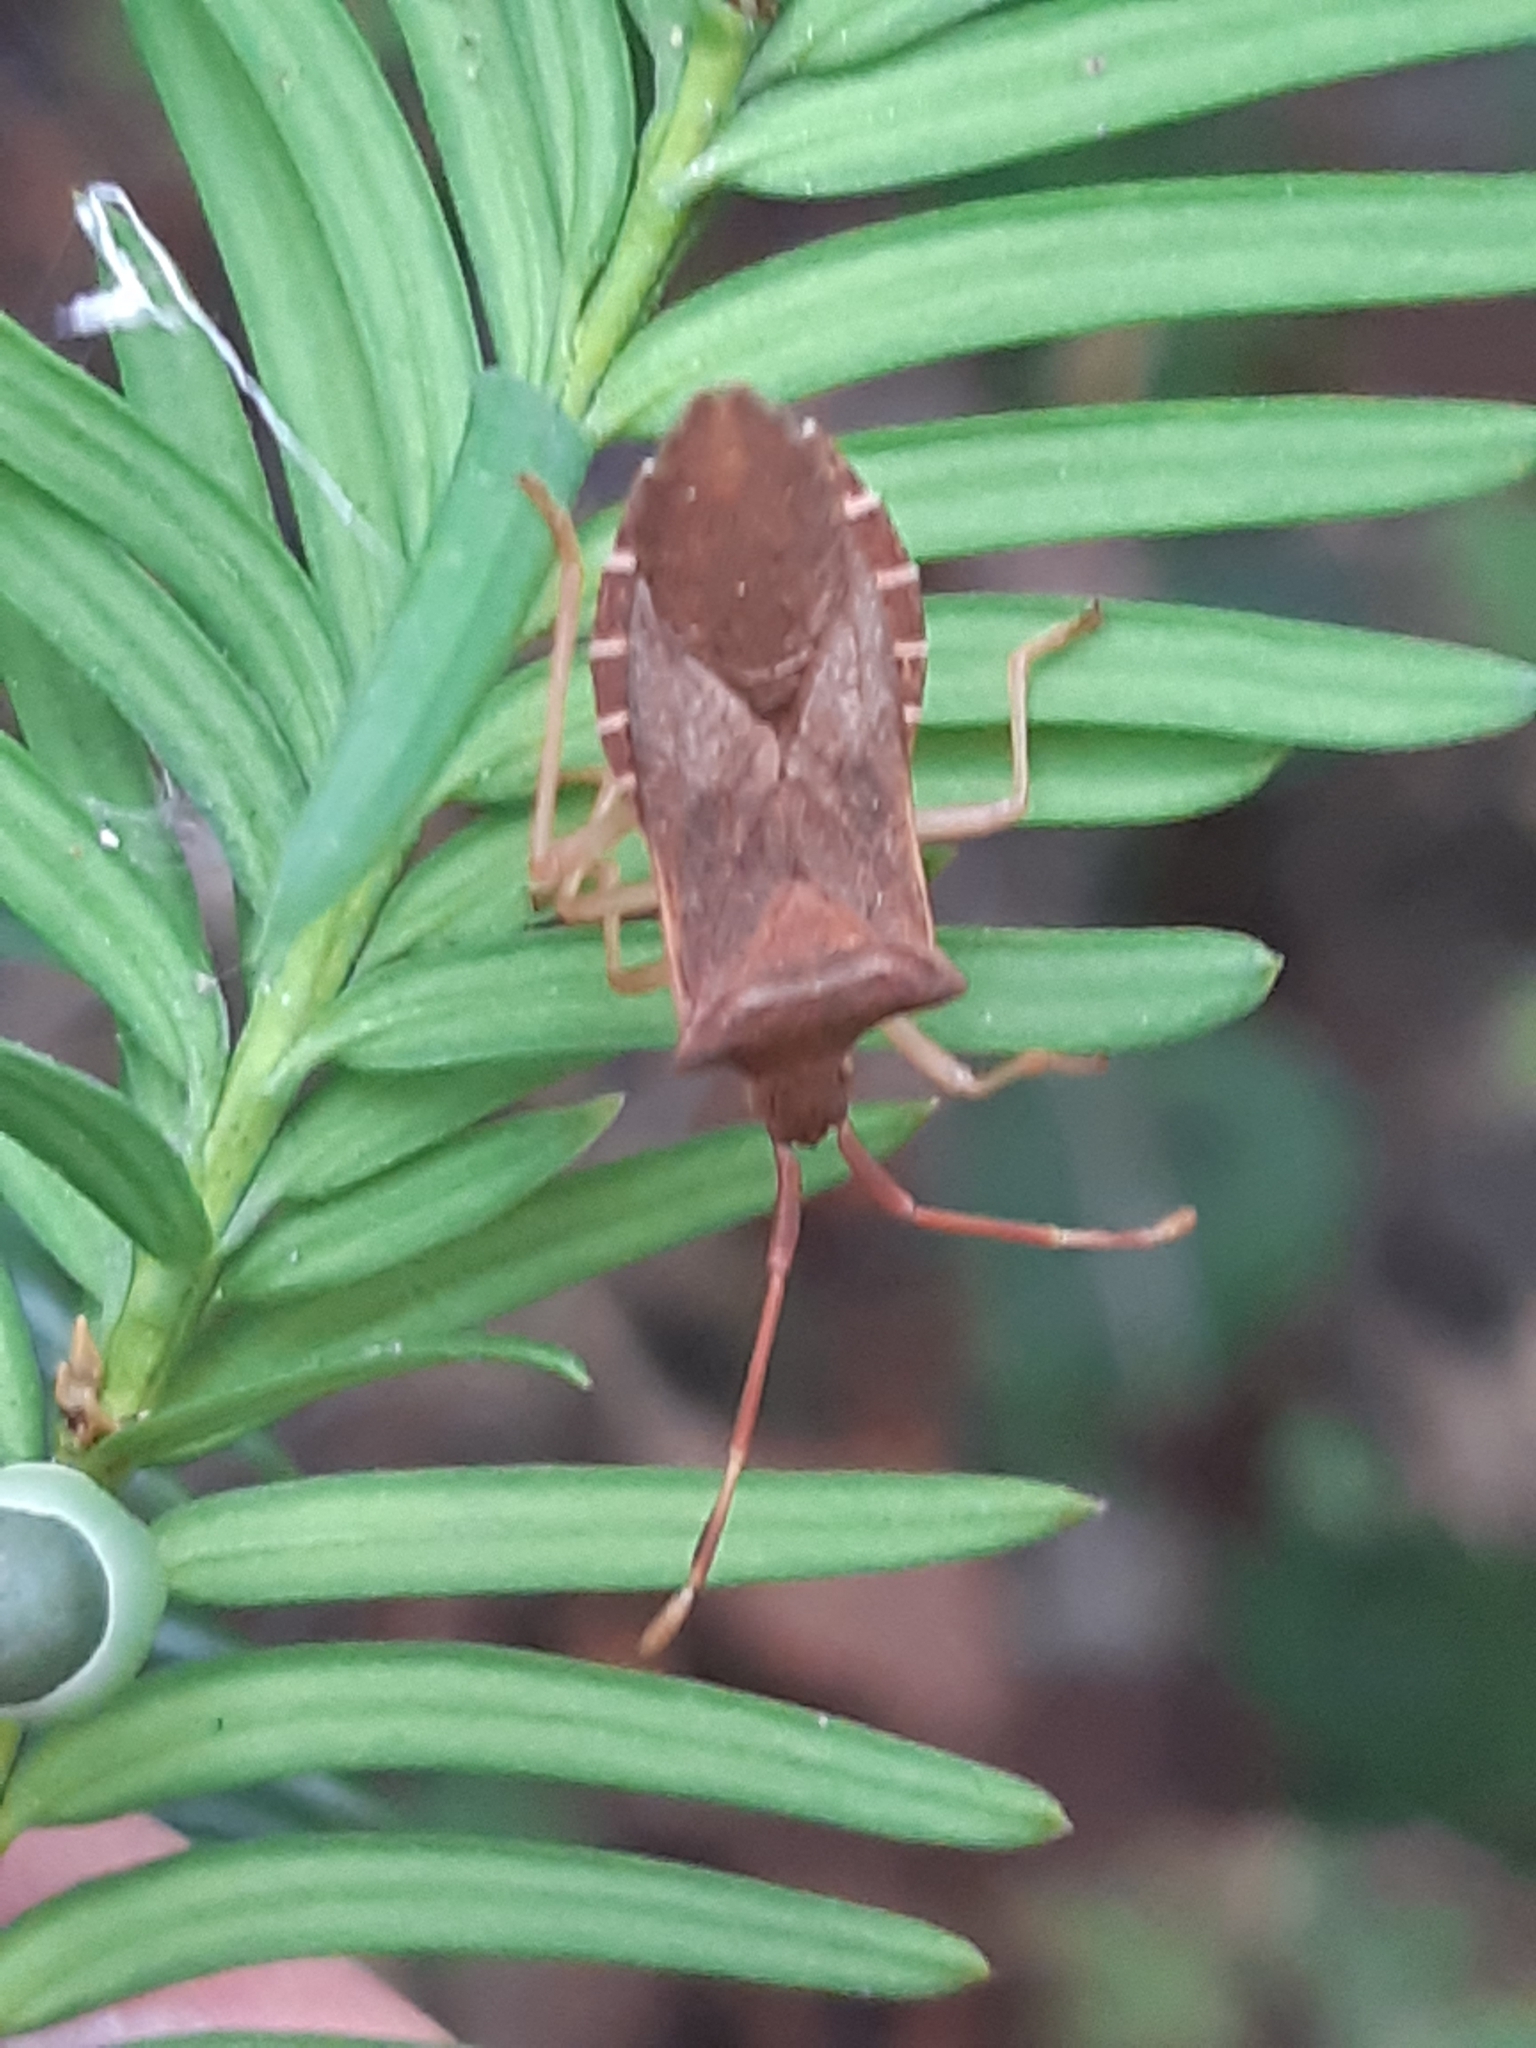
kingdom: Animalia
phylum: Arthropoda
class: Insecta
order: Hemiptera
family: Coreidae
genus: Gonocerus
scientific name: Gonocerus acuteangulatus
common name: Box bug
